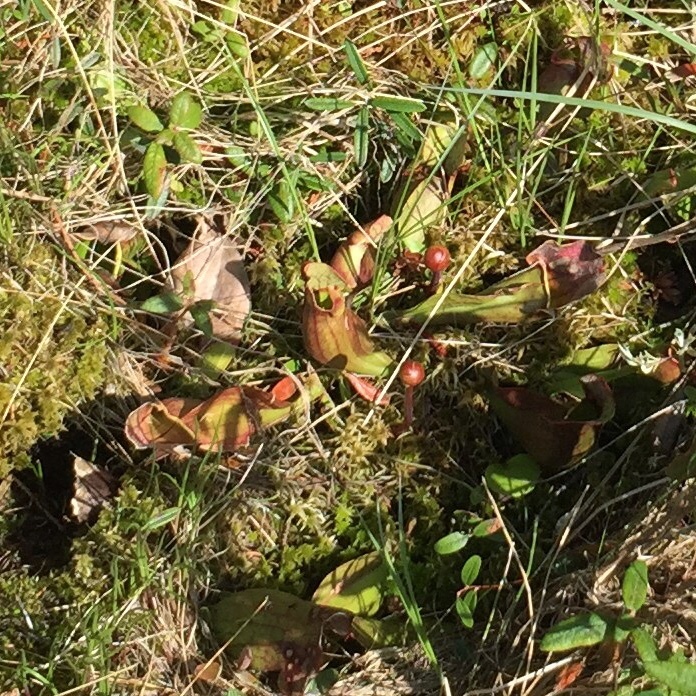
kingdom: Plantae
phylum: Tracheophyta
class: Magnoliopsida
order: Ericales
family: Sarraceniaceae
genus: Sarracenia
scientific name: Sarracenia purpurea
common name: Pitcherplant
